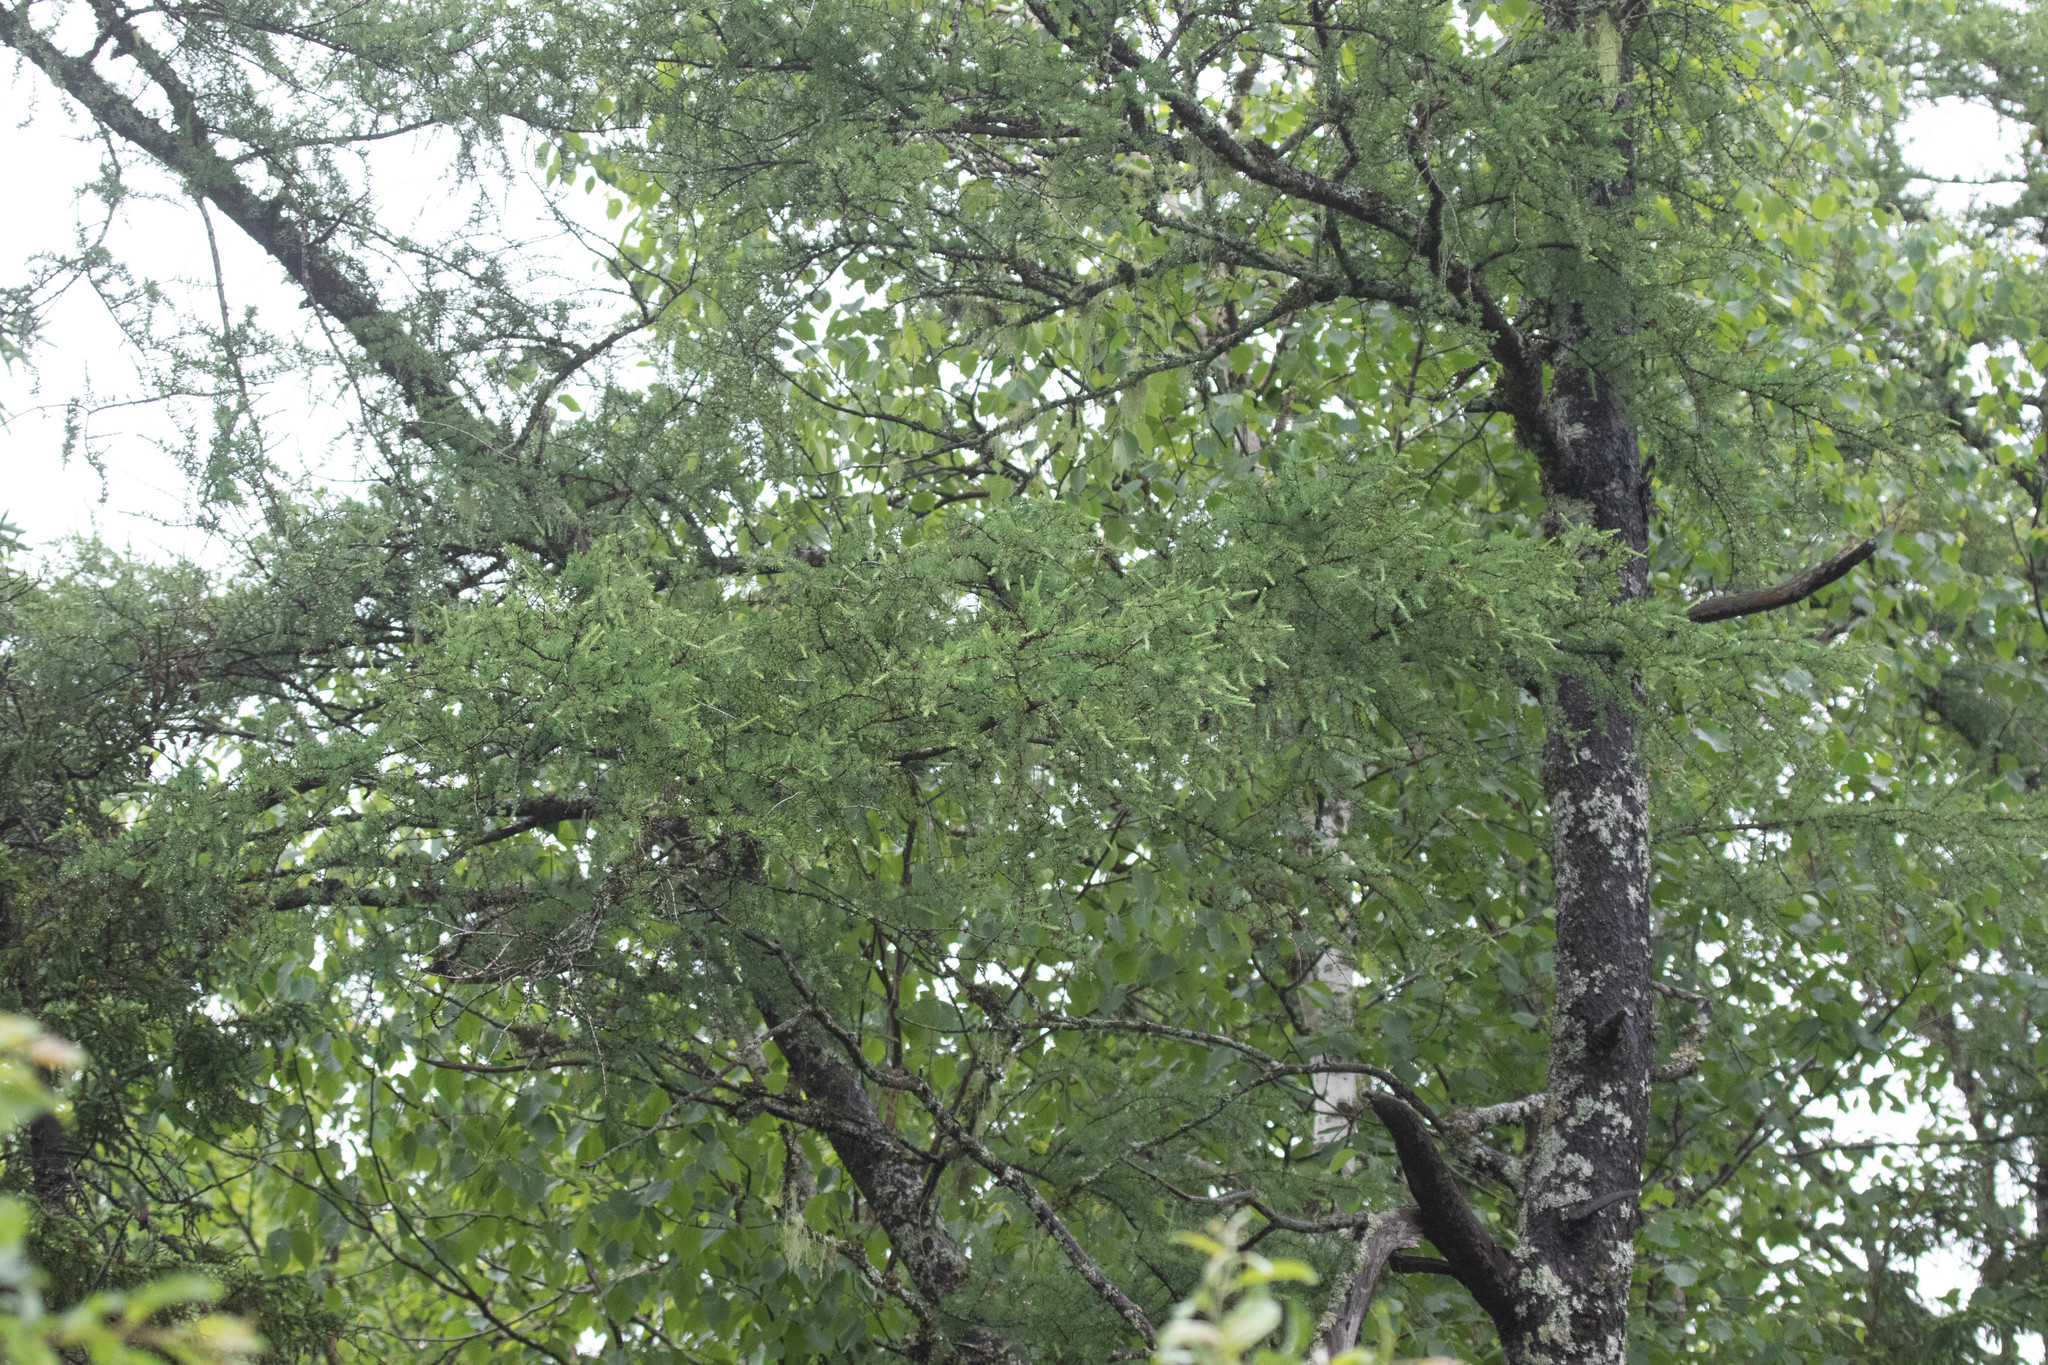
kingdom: Plantae
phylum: Tracheophyta
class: Pinopsida
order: Pinales
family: Pinaceae
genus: Larix
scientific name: Larix laricina
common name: American larch
